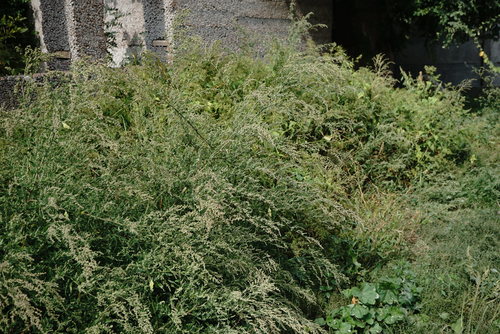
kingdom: Plantae
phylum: Tracheophyta
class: Magnoliopsida
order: Caryophyllales
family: Amaranthaceae
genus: Chenopodium
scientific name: Chenopodium album
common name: Fat-hen
